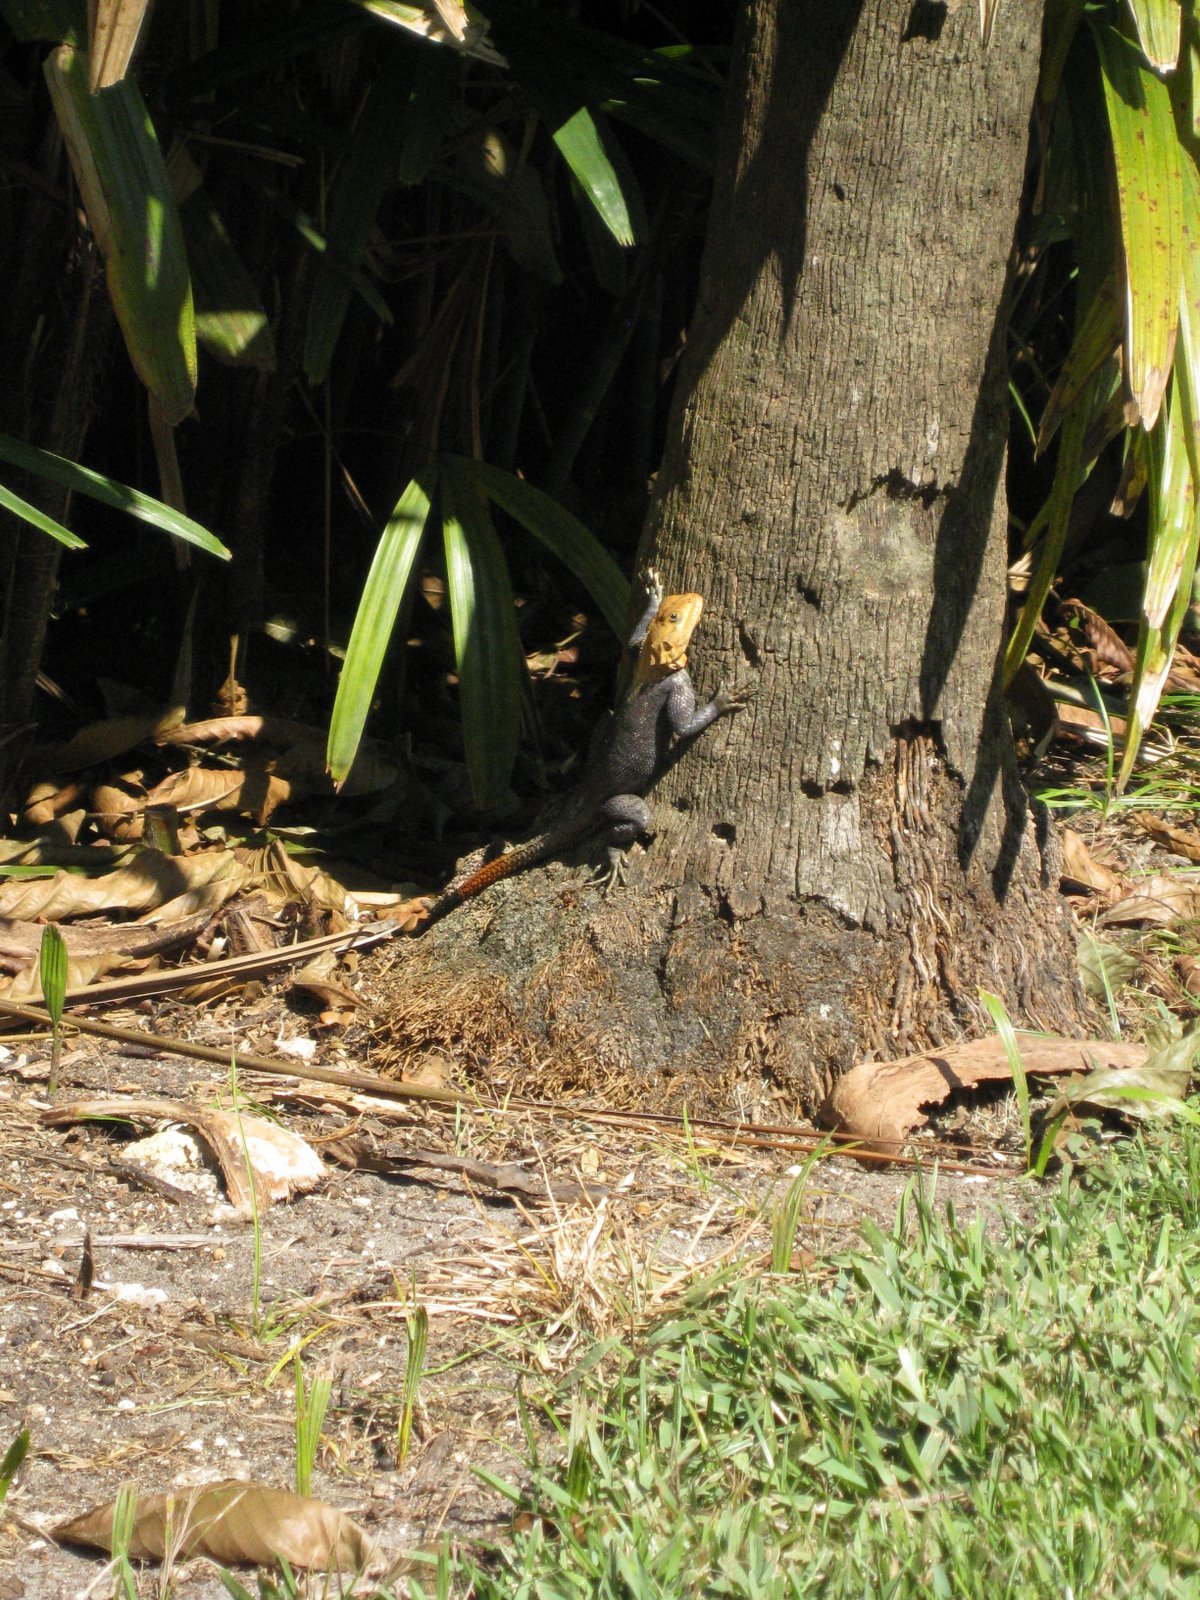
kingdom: Animalia
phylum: Chordata
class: Squamata
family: Agamidae
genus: Agama
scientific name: Agama picticauda
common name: Red-headed agama
